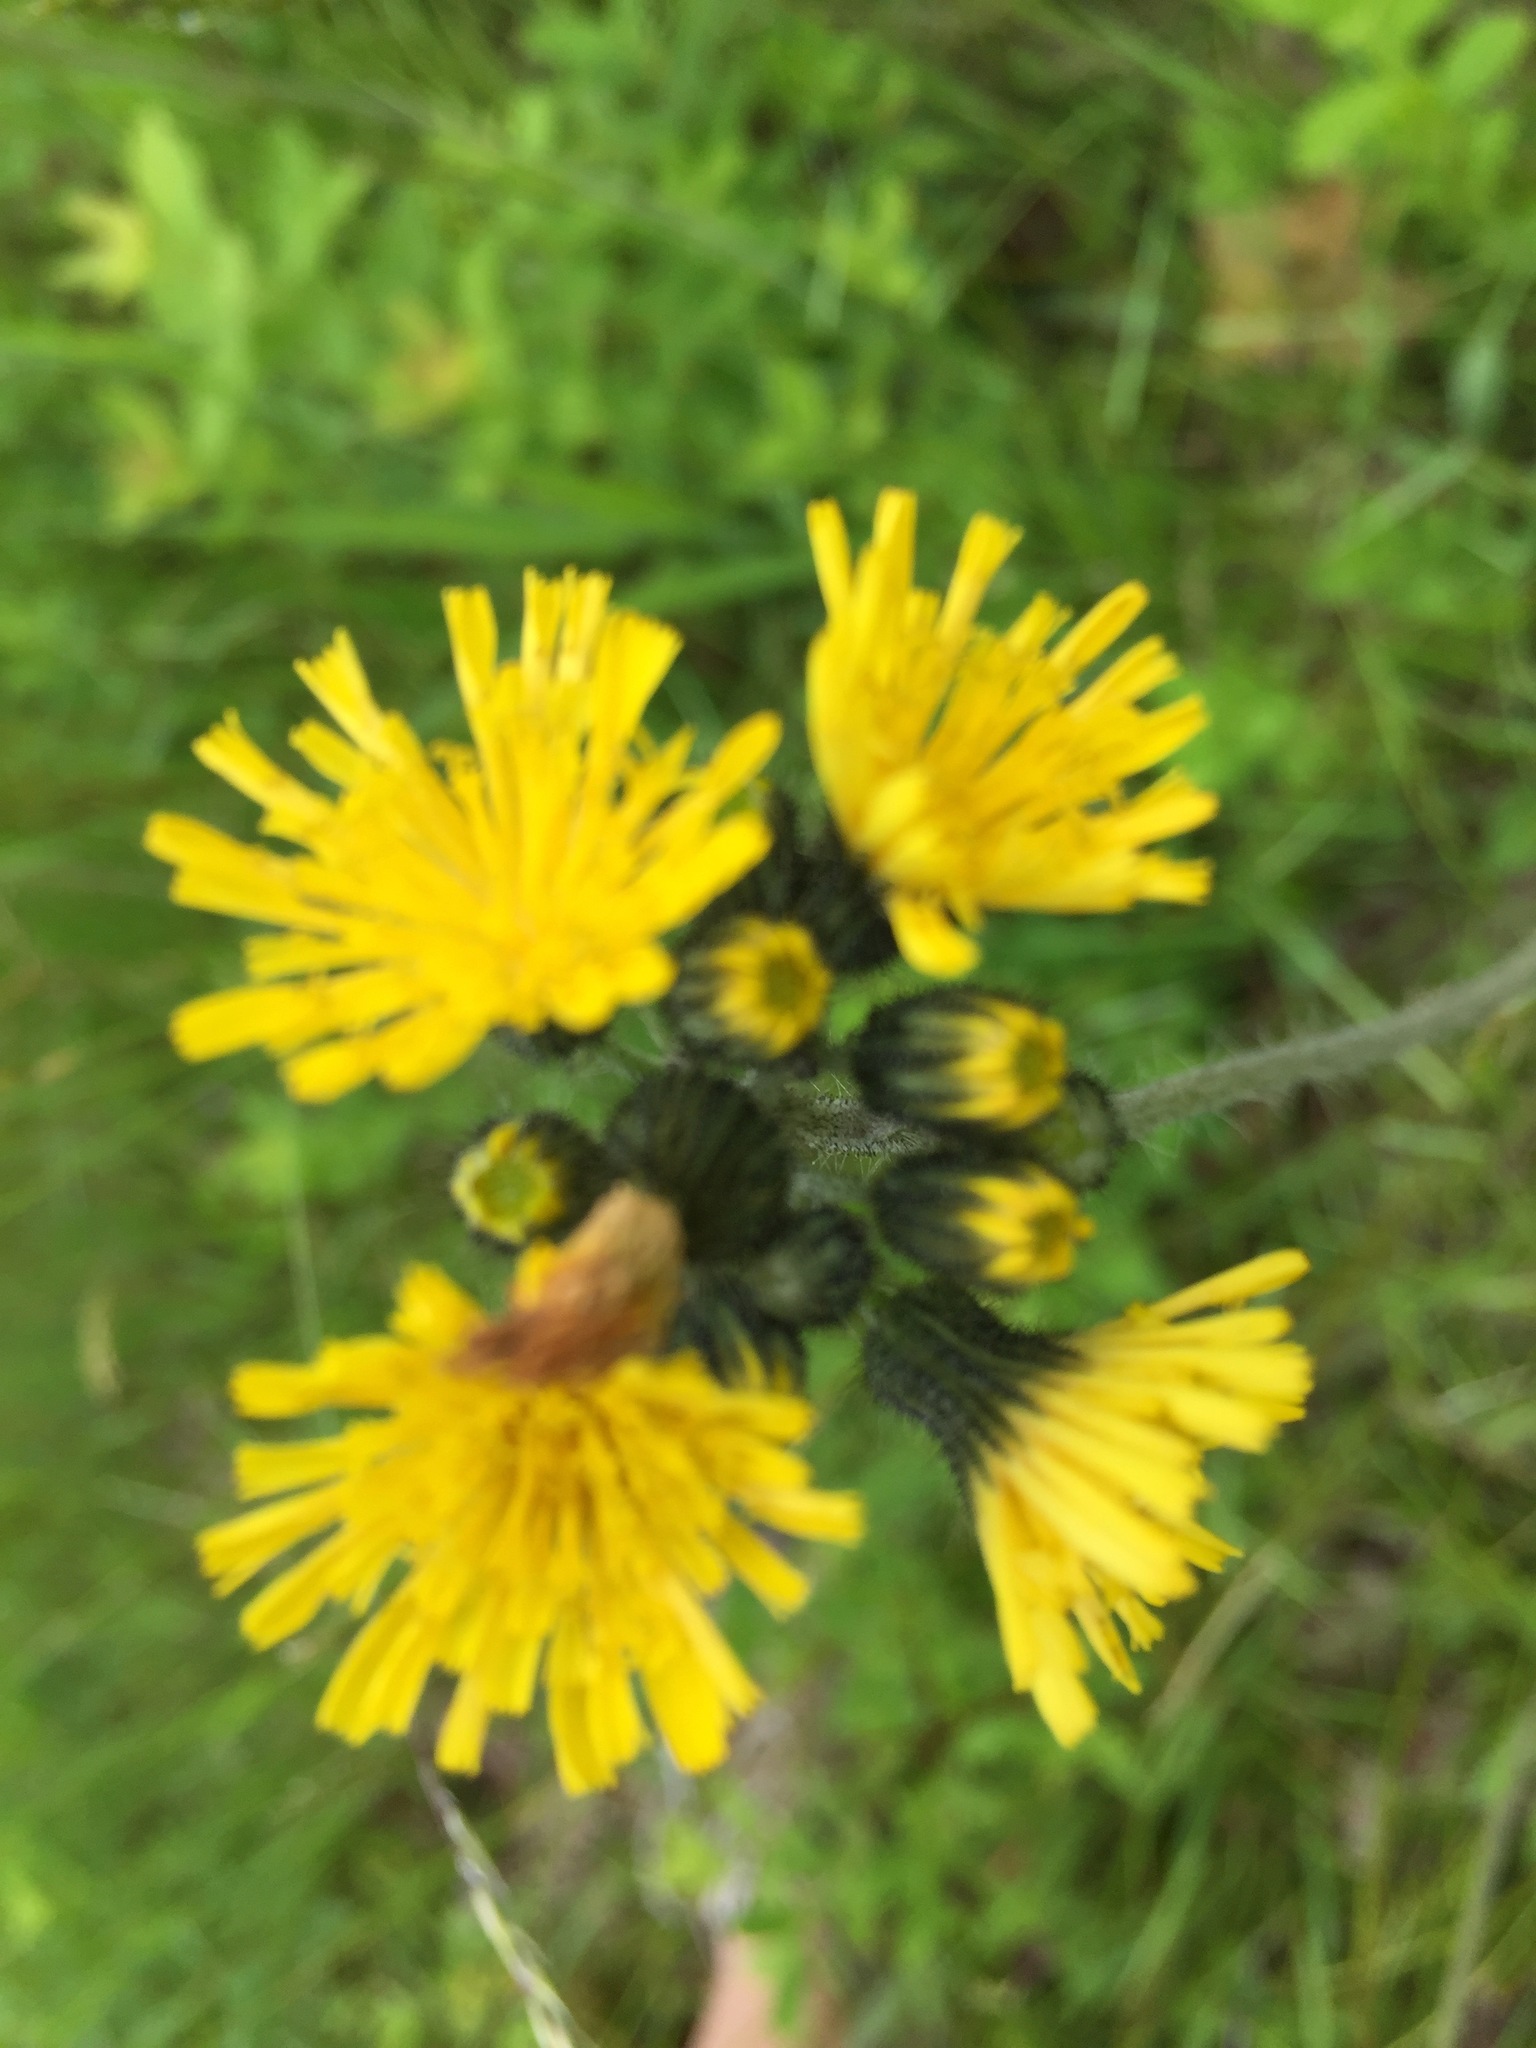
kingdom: Plantae
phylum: Tracheophyta
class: Magnoliopsida
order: Asterales
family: Asteraceae
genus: Pilosella
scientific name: Pilosella caespitosa
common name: Yellow fox-and-cubs
